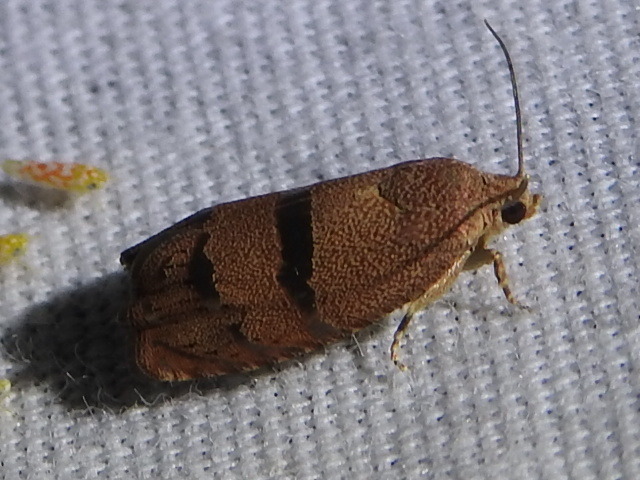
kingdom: Animalia
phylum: Arthropoda
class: Insecta
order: Lepidoptera
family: Tortricidae
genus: Cydia
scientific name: Cydia latiferreana
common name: Filbertworm moth
